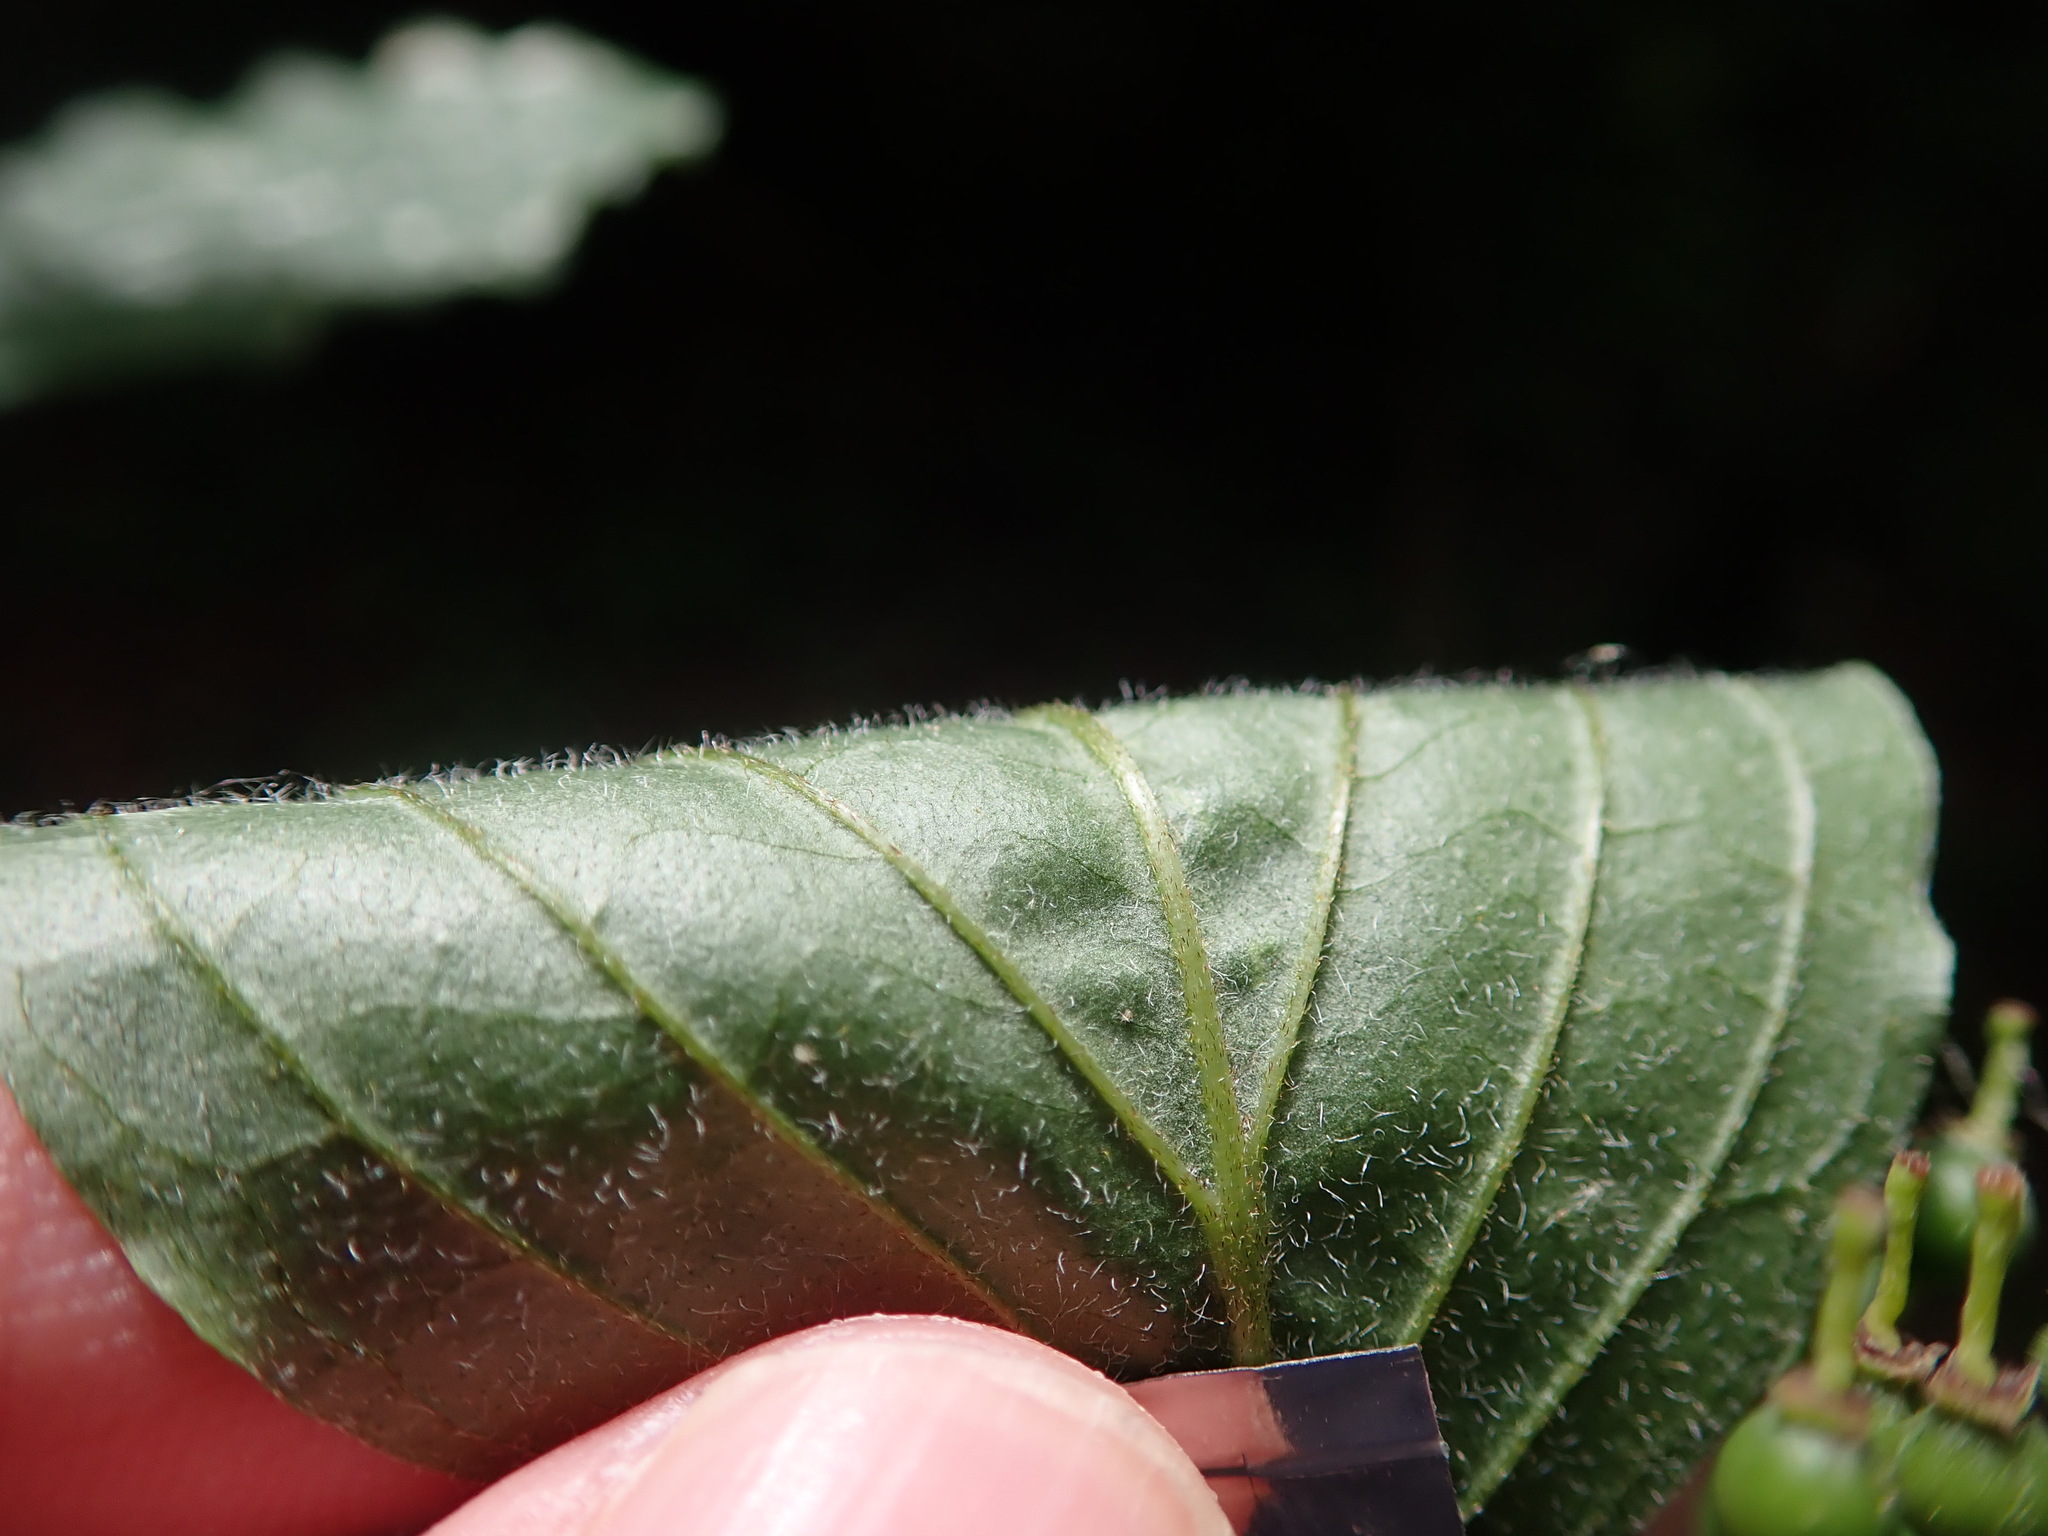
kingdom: Plantae
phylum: Tracheophyta
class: Magnoliopsida
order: Cornales
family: Cornaceae
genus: Cornus
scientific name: Cornus sanguinea
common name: Dogwood
